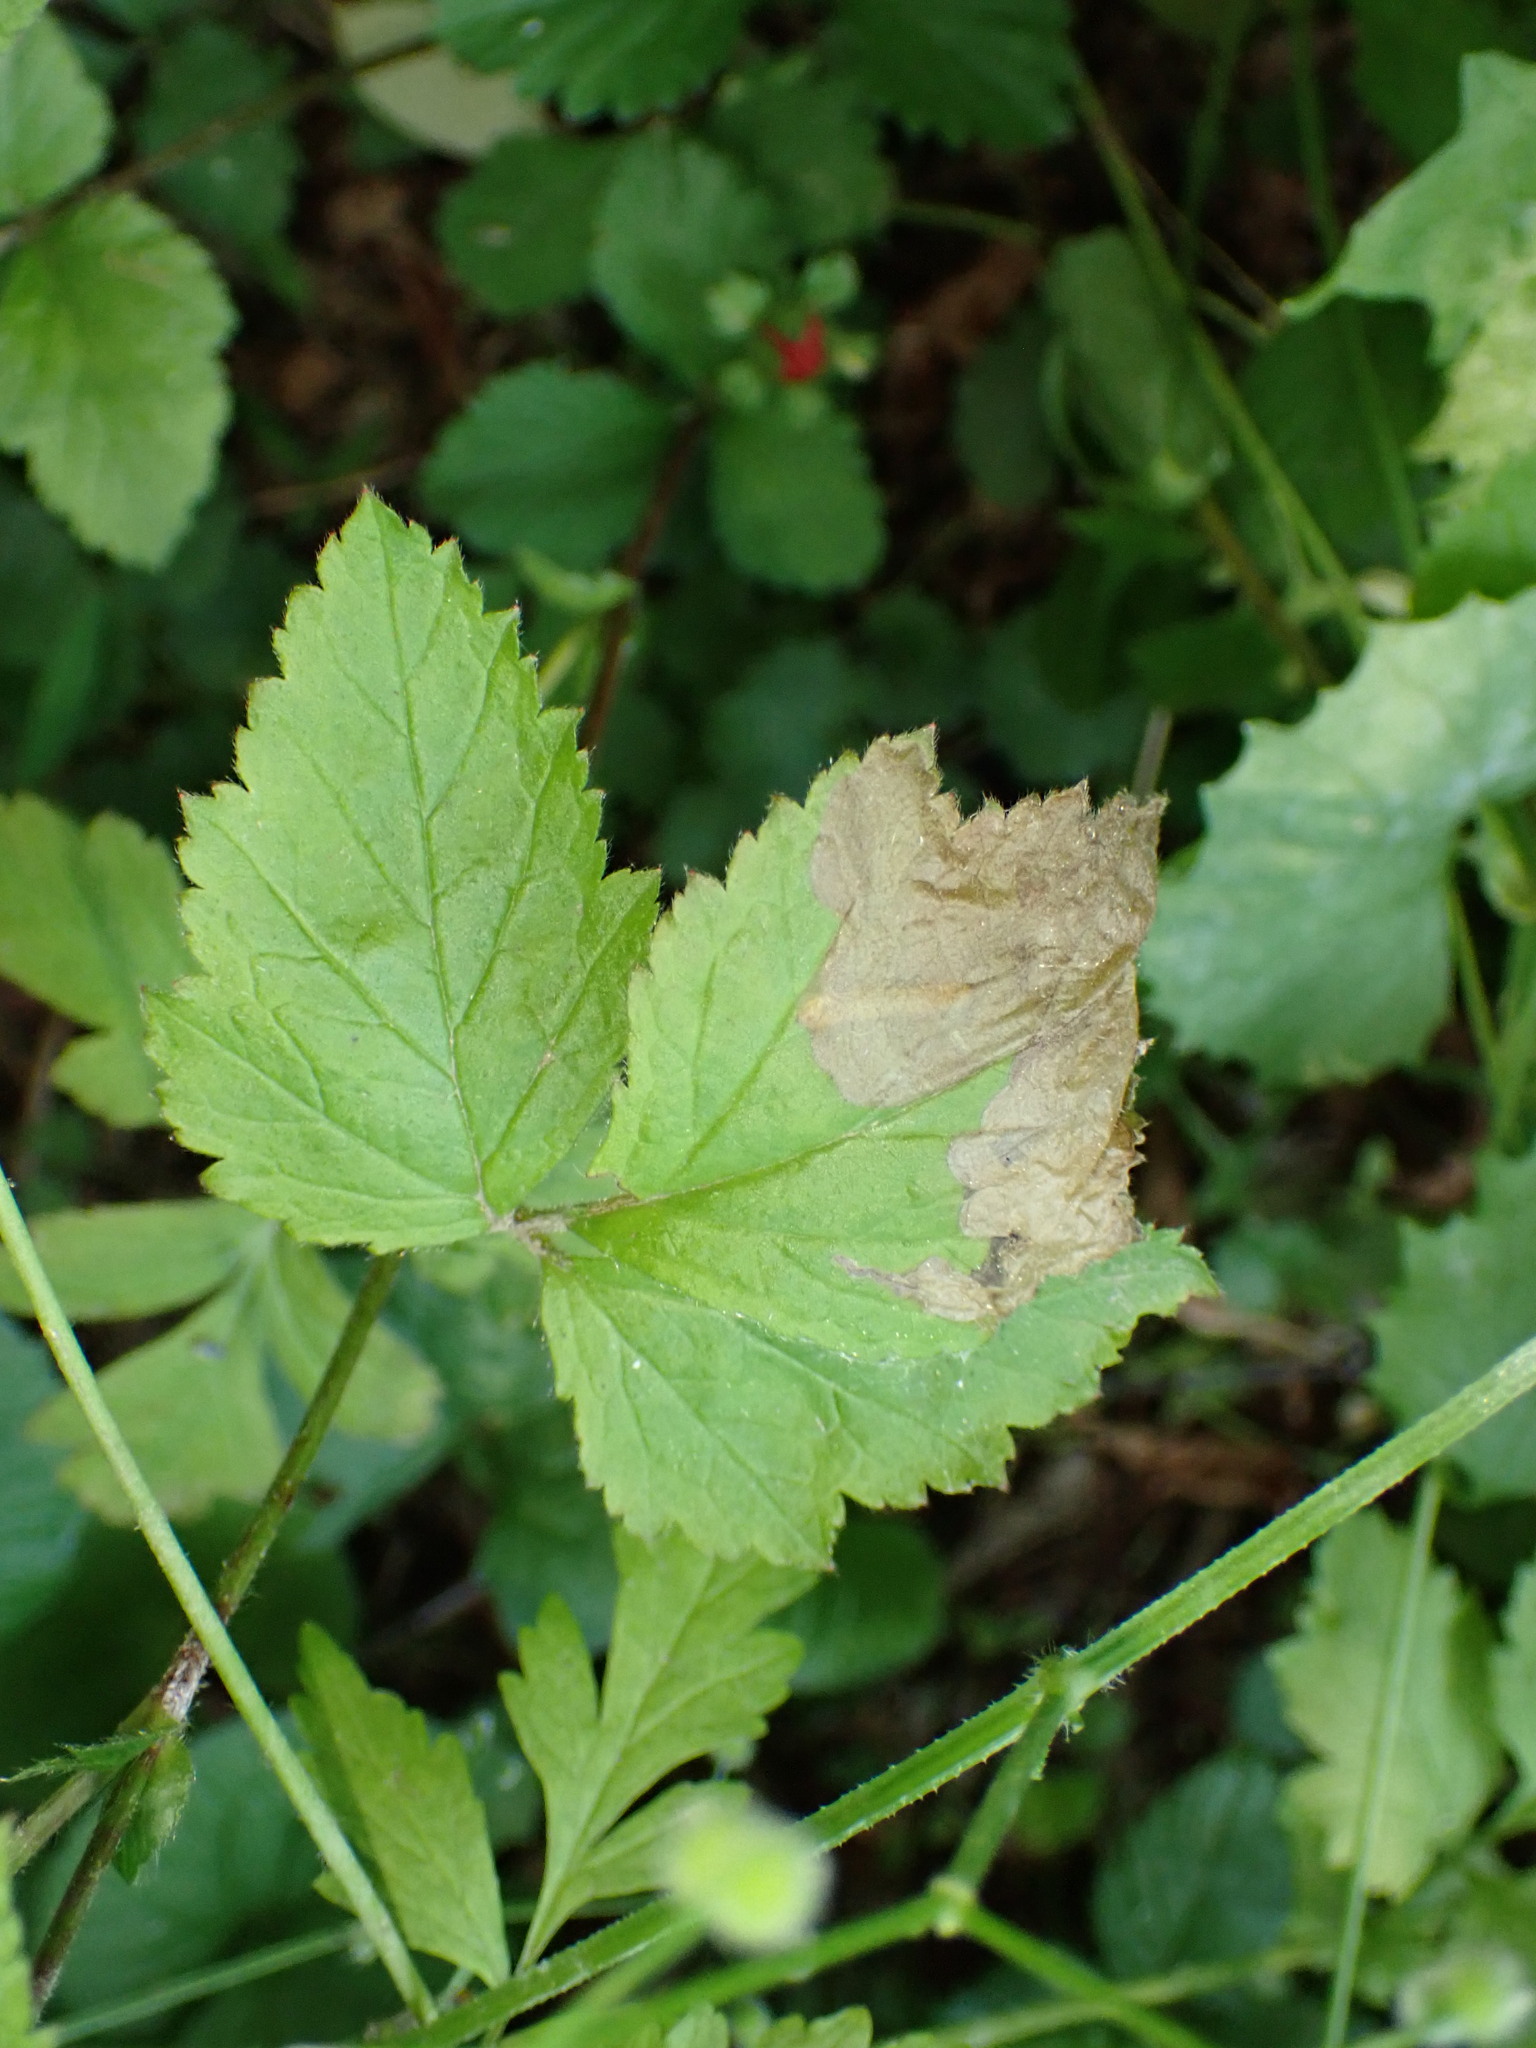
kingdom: Animalia
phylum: Arthropoda
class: Insecta
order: Hymenoptera
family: Tenthredinidae
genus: Metallus
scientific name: Metallus lanceolatus
